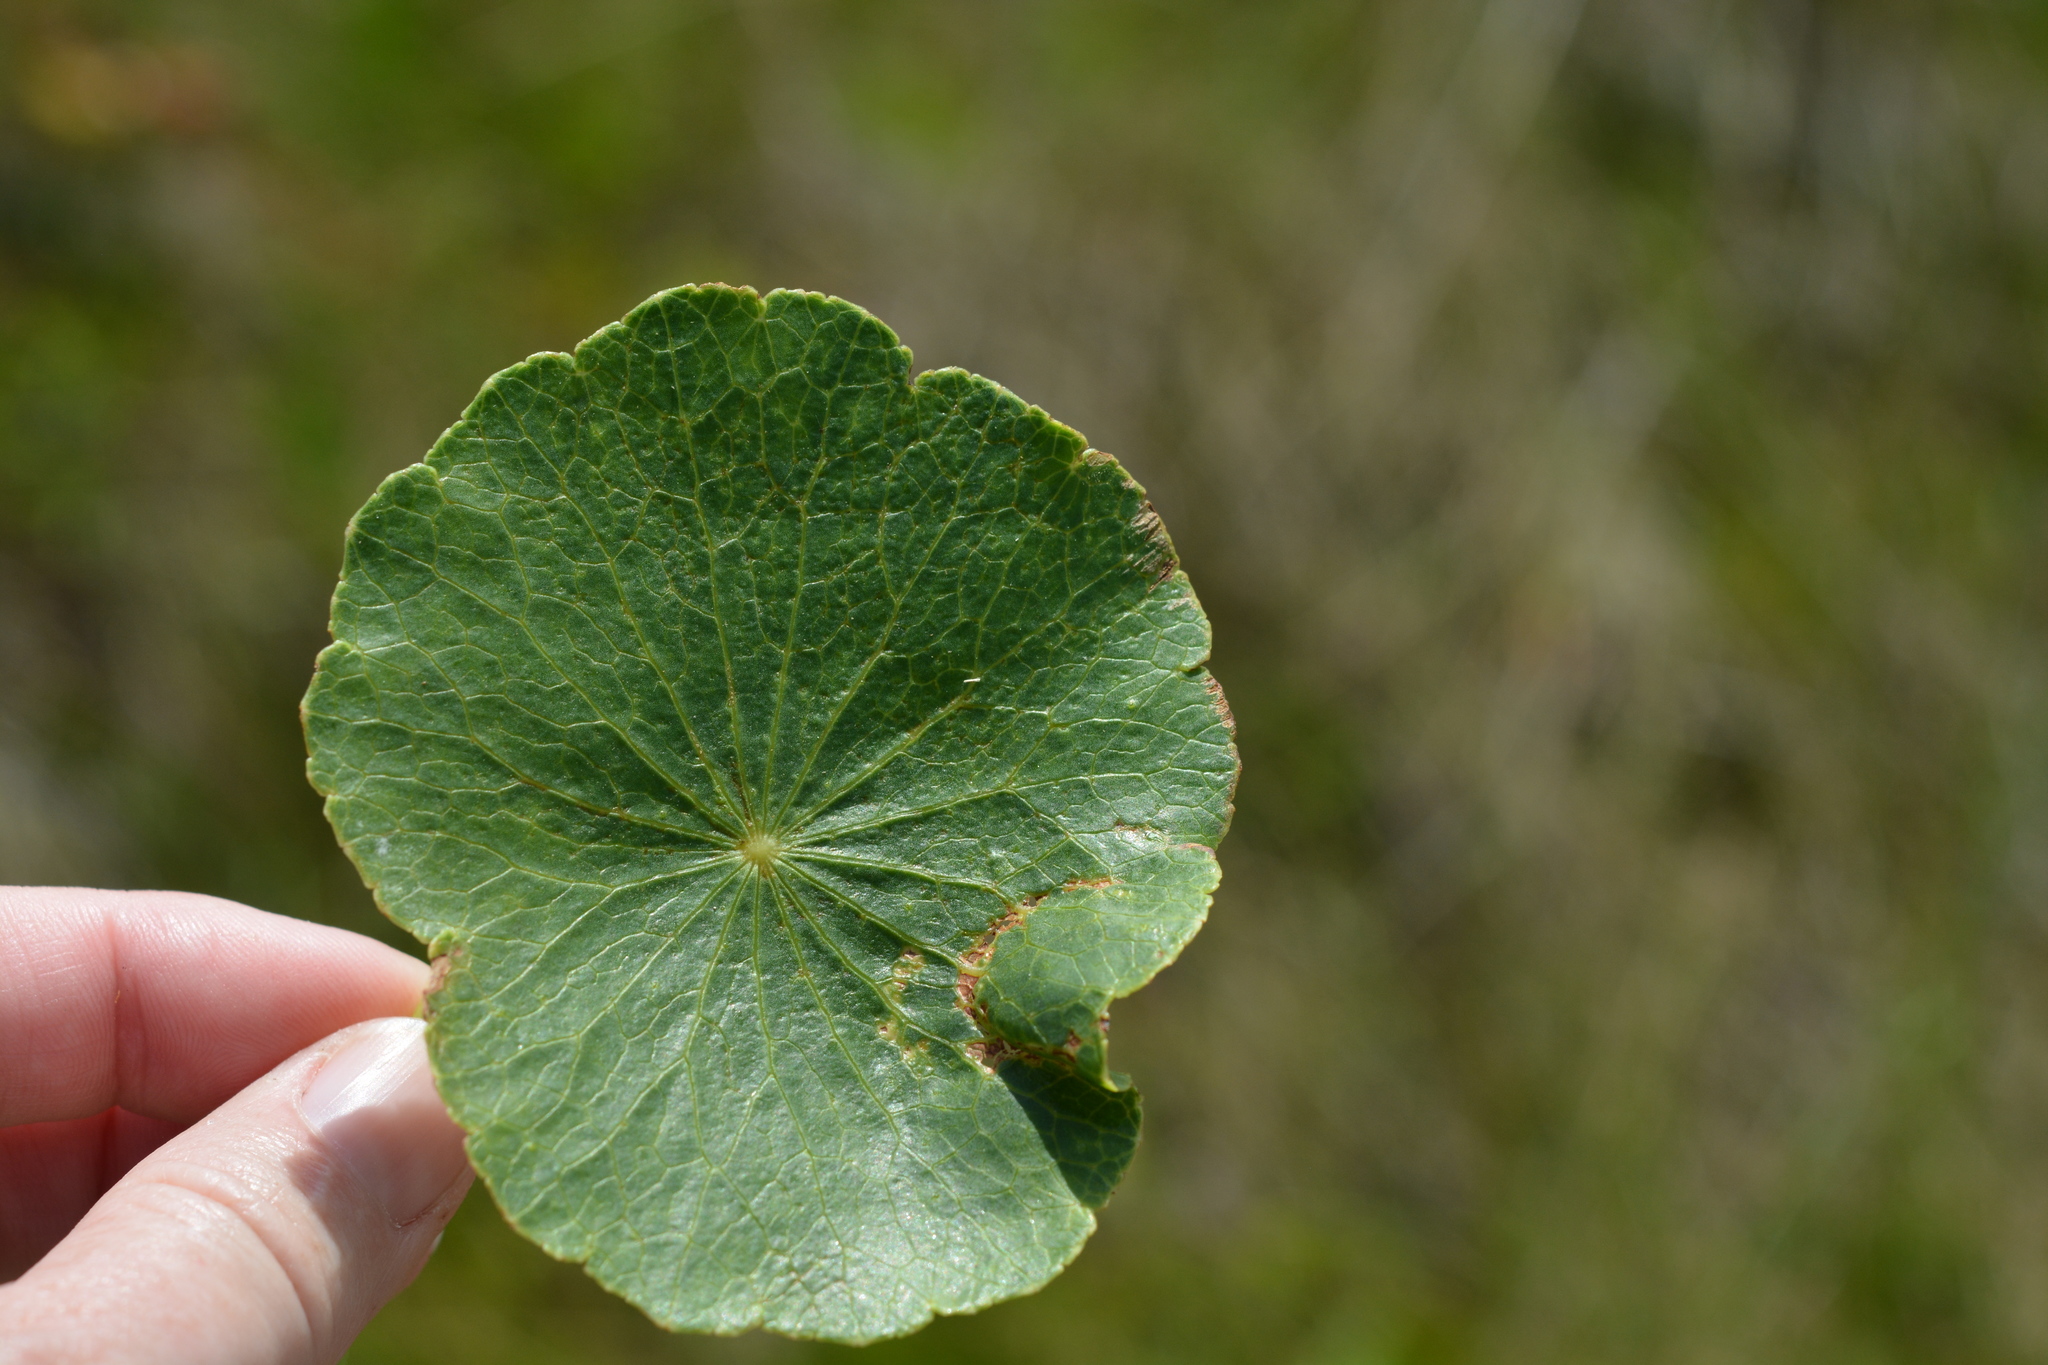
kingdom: Plantae
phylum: Tracheophyta
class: Magnoliopsida
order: Apiales
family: Araliaceae
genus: Hydrocotyle
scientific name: Hydrocotyle bonariensis
